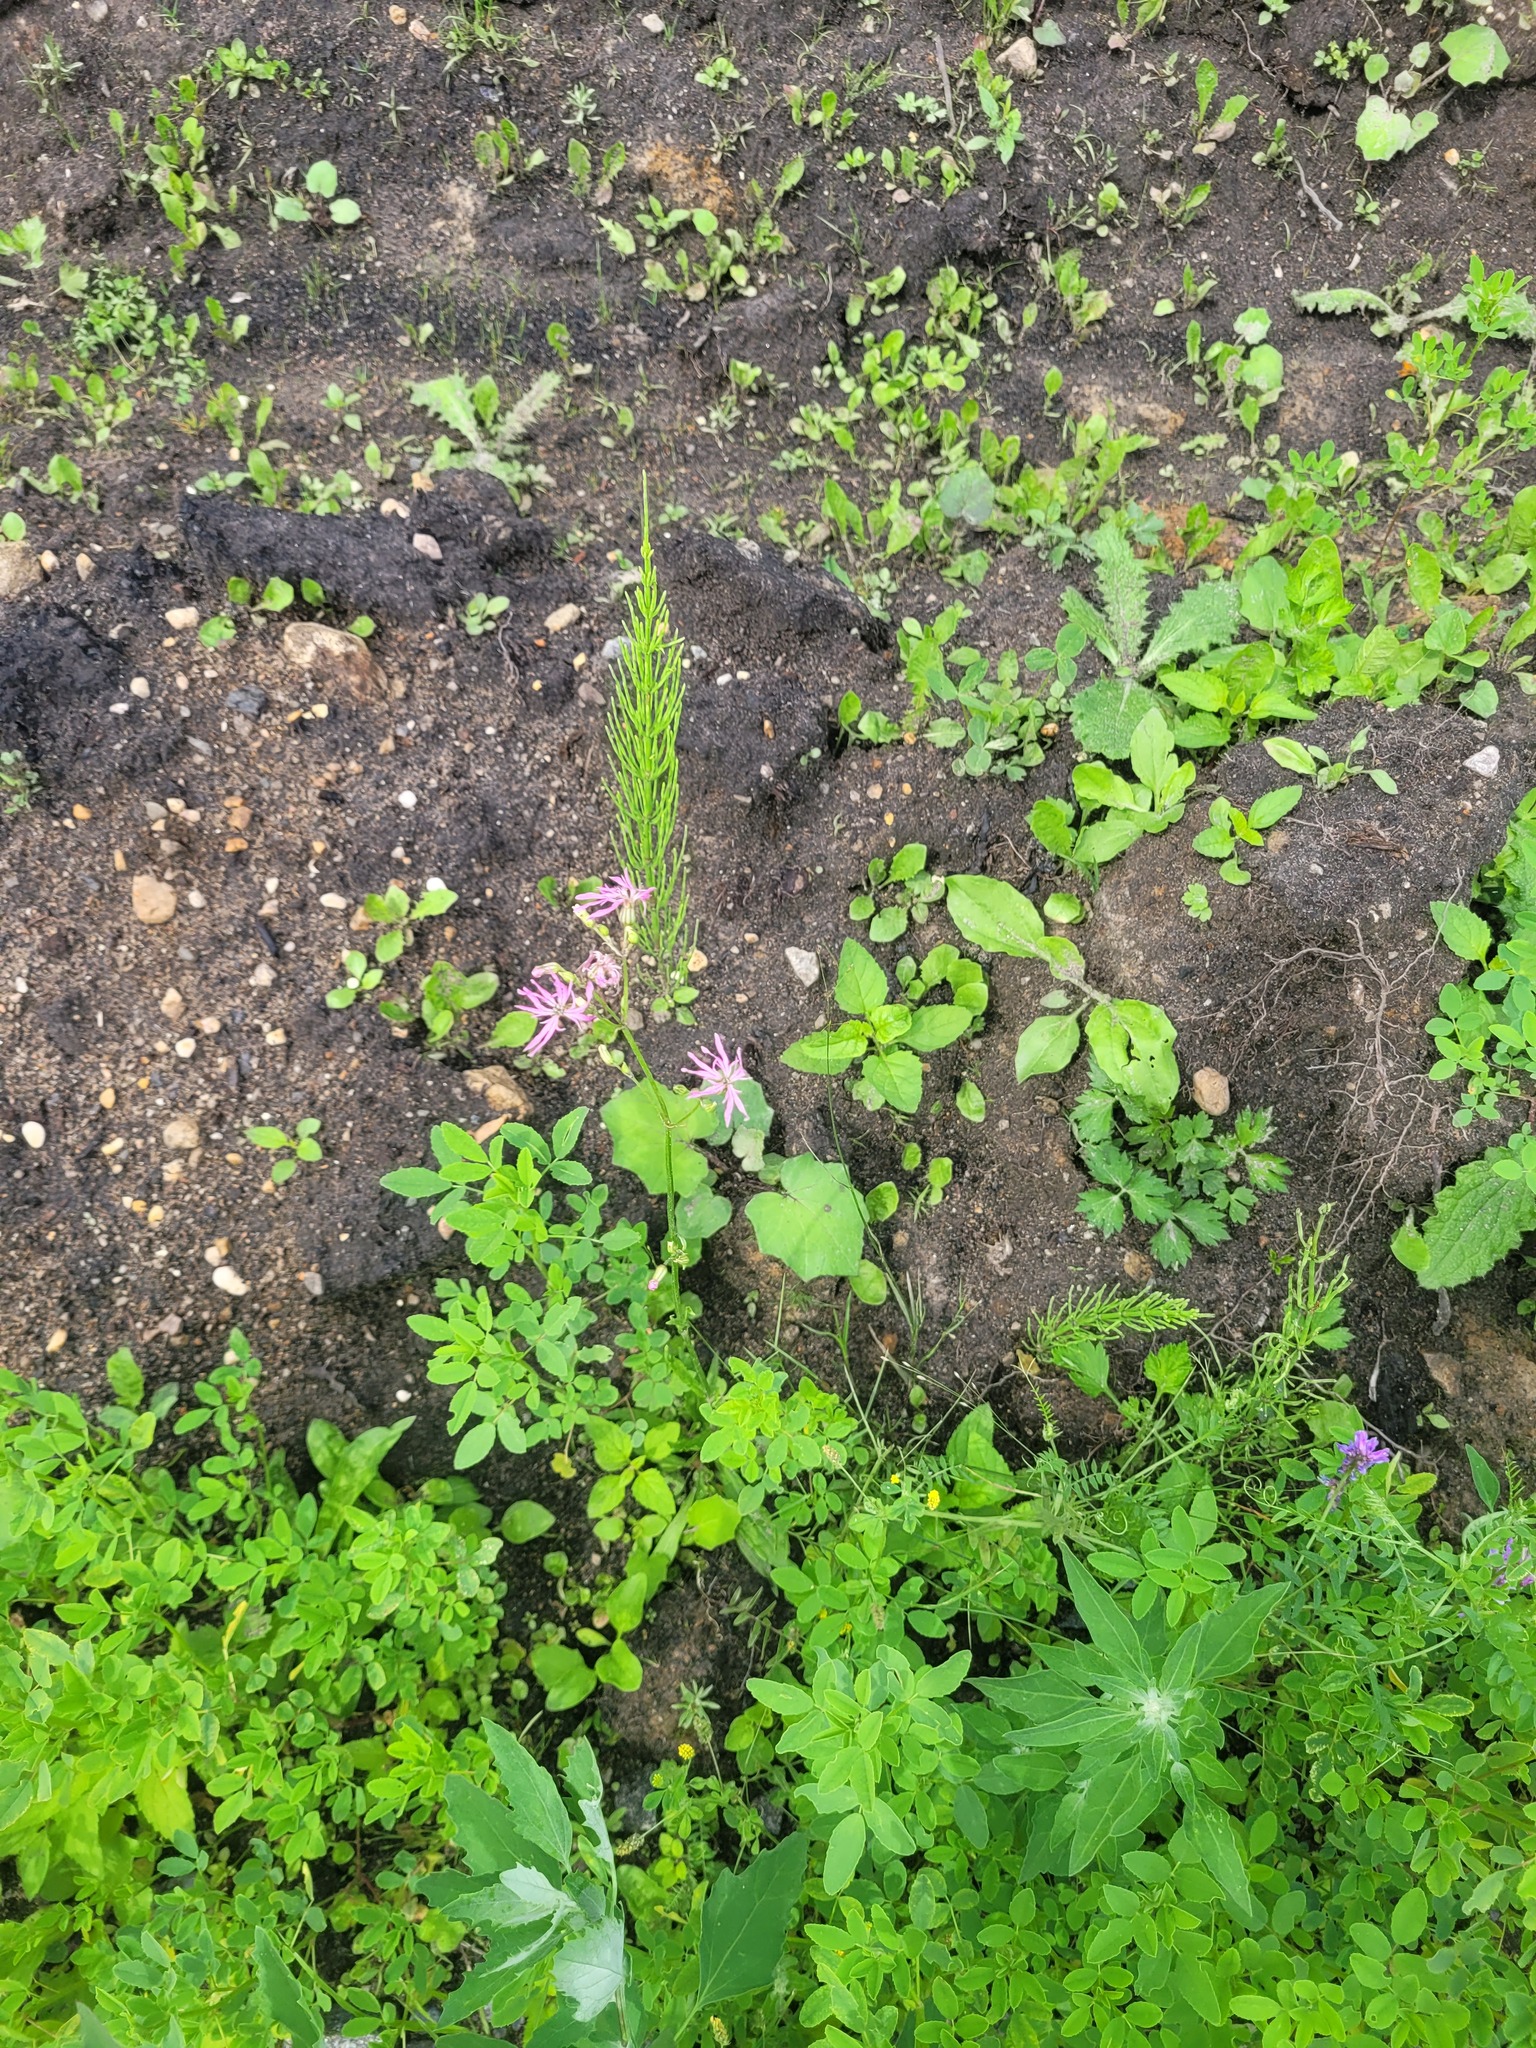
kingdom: Plantae
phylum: Tracheophyta
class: Magnoliopsida
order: Caryophyllales
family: Caryophyllaceae
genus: Silene
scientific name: Silene flos-cuculi
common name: Ragged-robin
